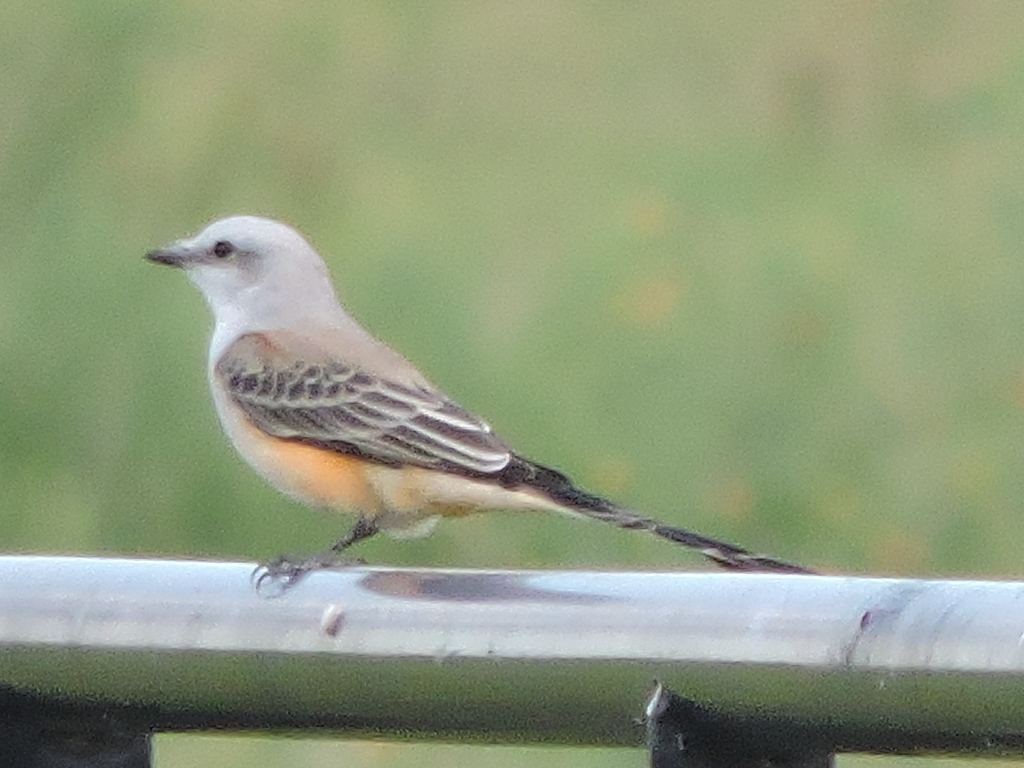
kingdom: Animalia
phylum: Chordata
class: Aves
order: Passeriformes
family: Tyrannidae
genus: Tyrannus
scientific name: Tyrannus forficatus
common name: Scissor-tailed flycatcher
